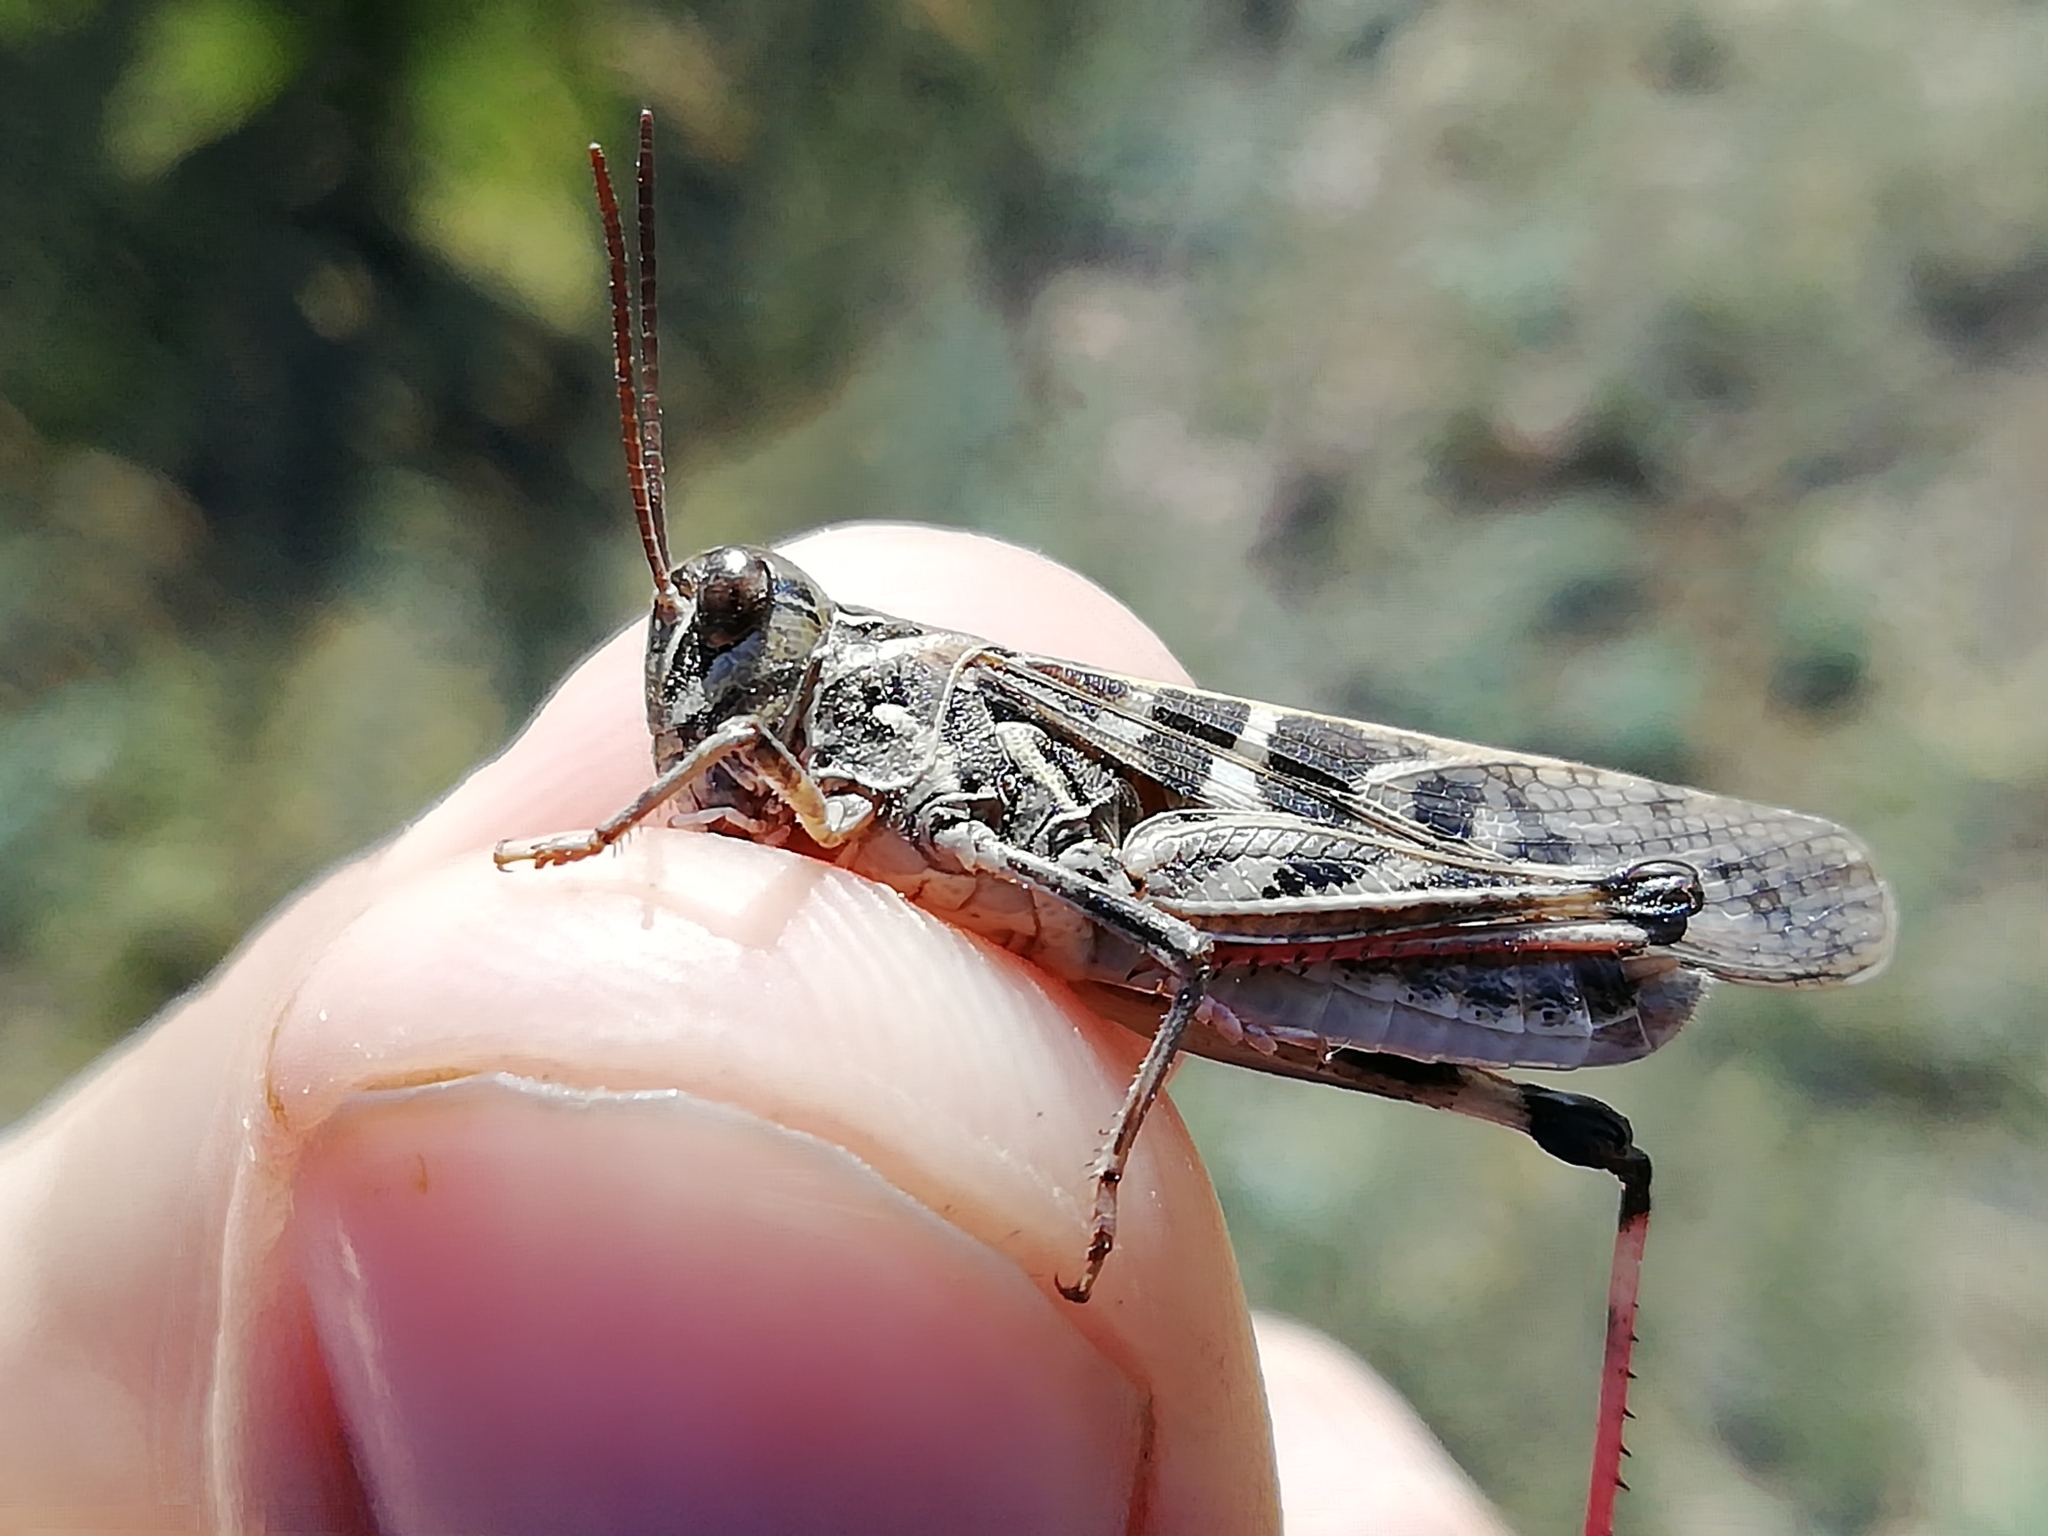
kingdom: Animalia
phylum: Arthropoda
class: Insecta
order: Orthoptera
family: Acrididae
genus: Oedaleus
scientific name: Oedaleus decorus
